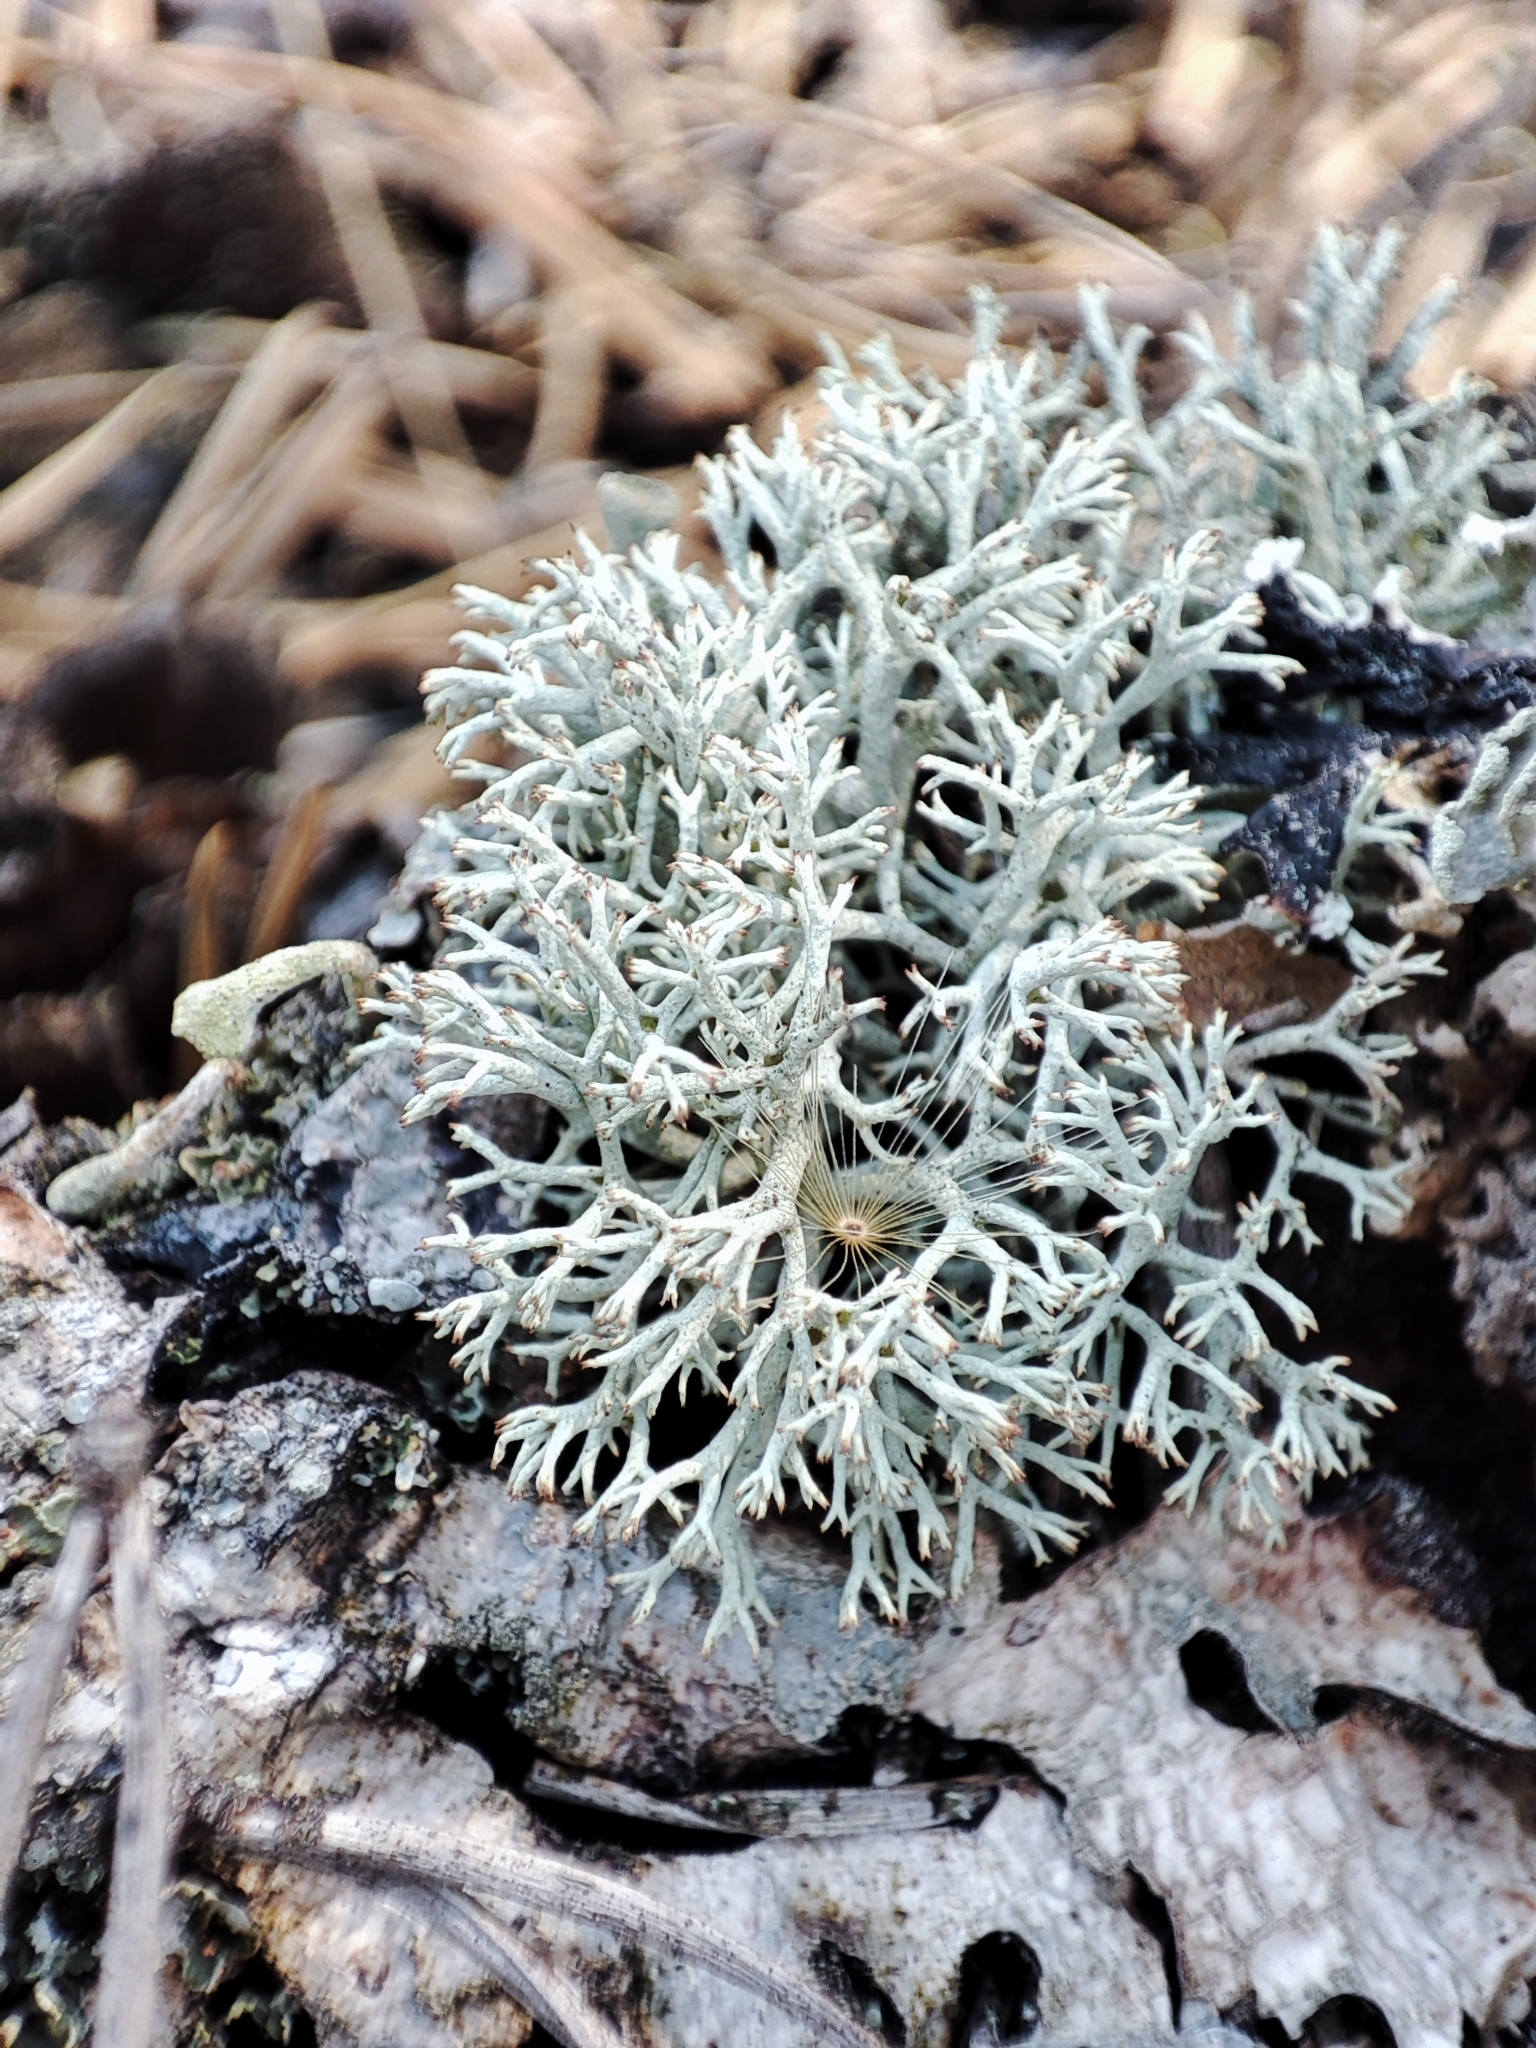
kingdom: Fungi
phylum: Ascomycota
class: Lecanoromycetes
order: Lecanorales
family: Cladoniaceae
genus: Cladonia
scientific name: Cladonia mitis
